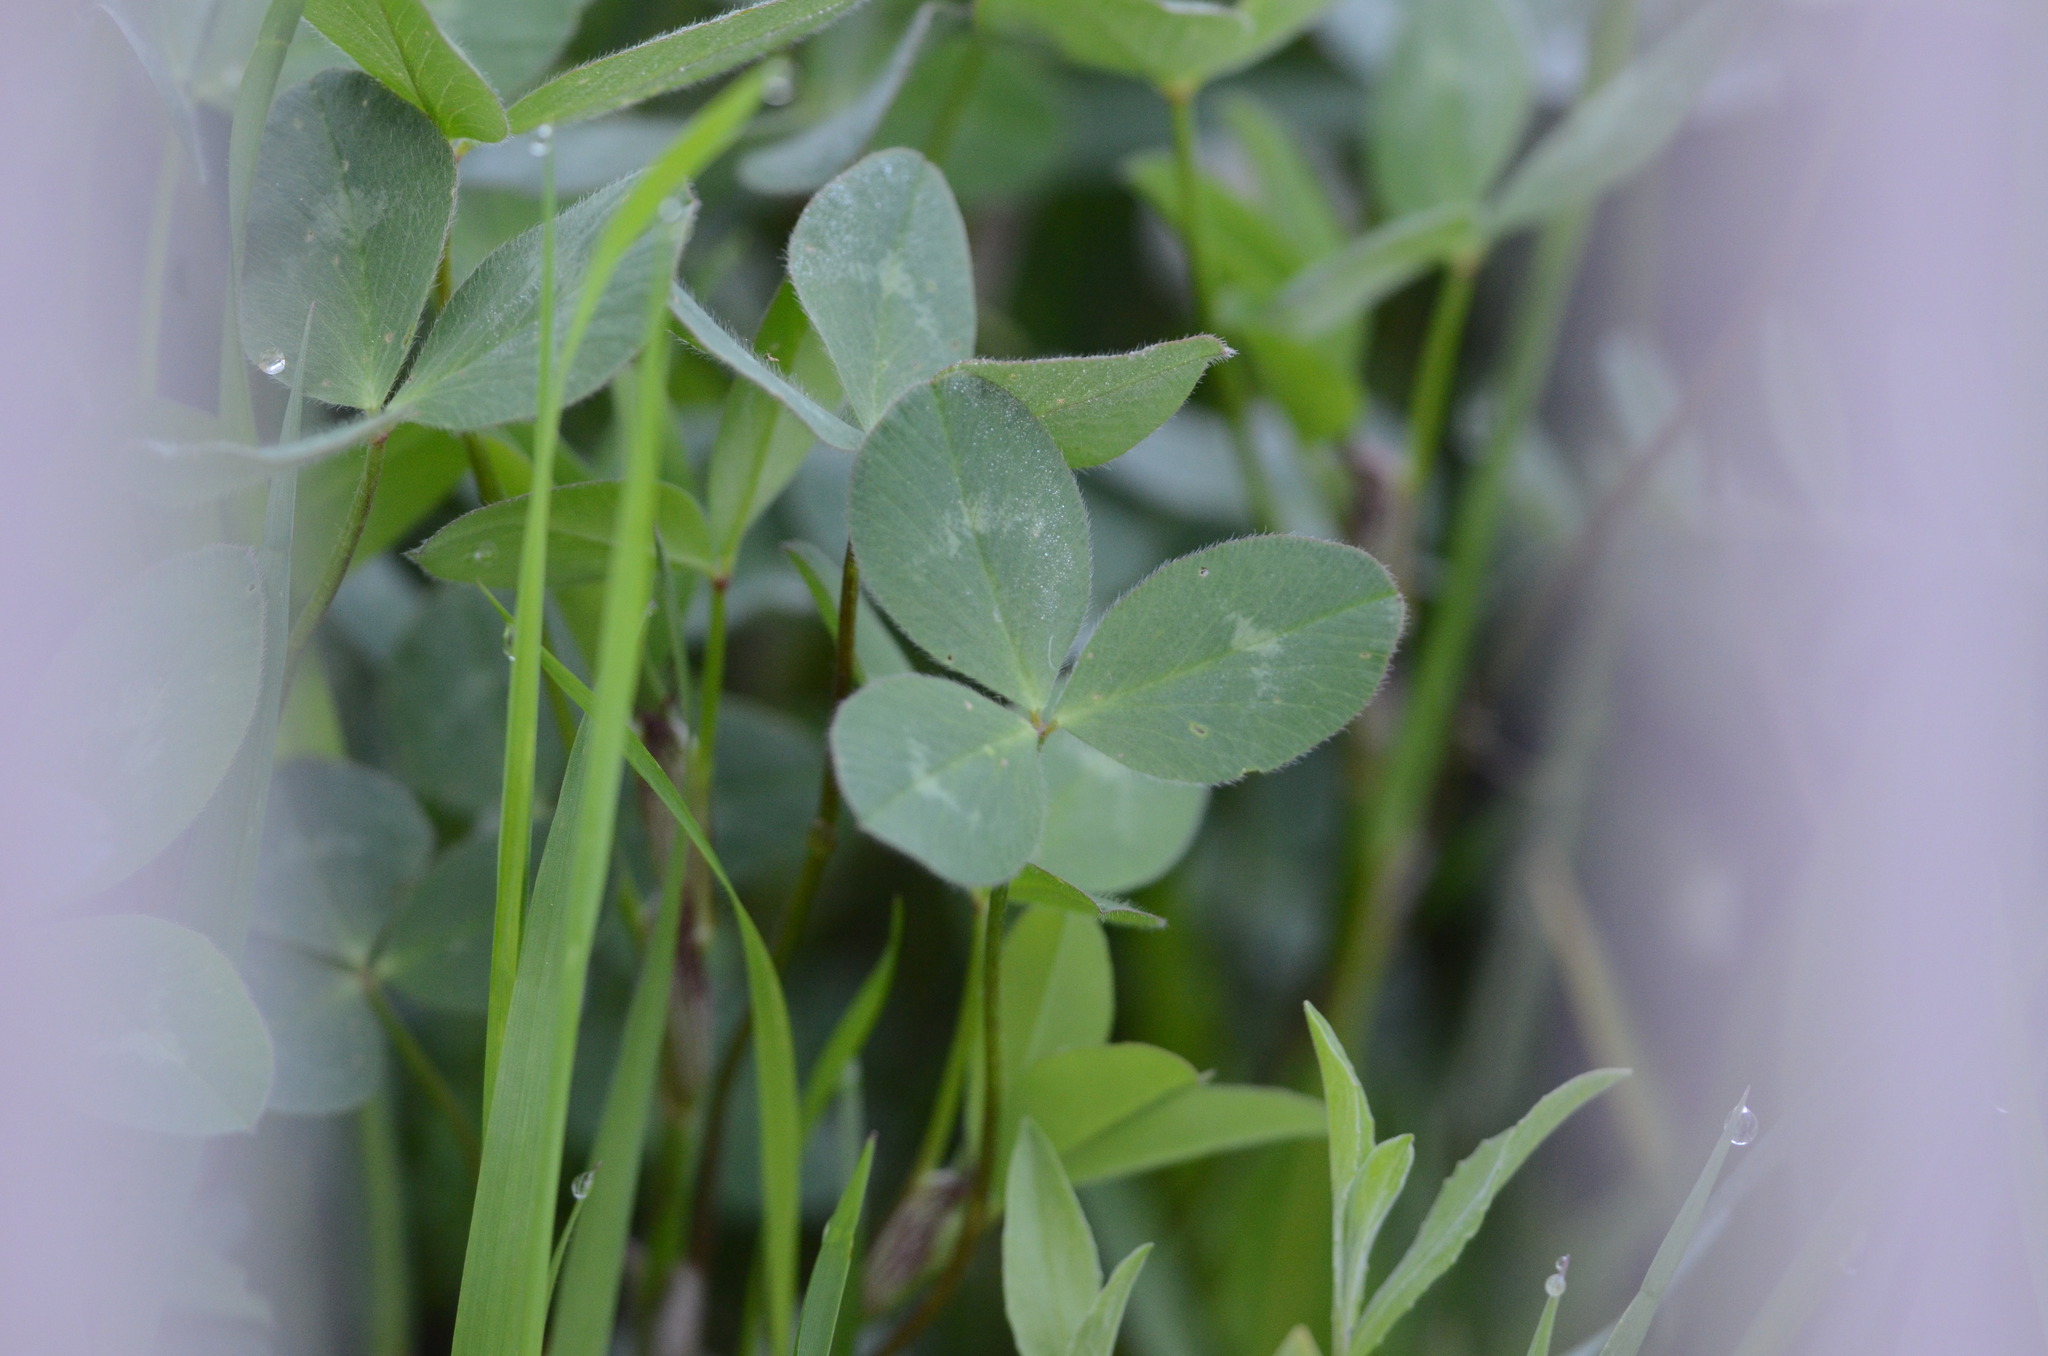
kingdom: Plantae
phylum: Tracheophyta
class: Magnoliopsida
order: Fabales
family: Fabaceae
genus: Trifolium
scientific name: Trifolium pratense
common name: Red clover
